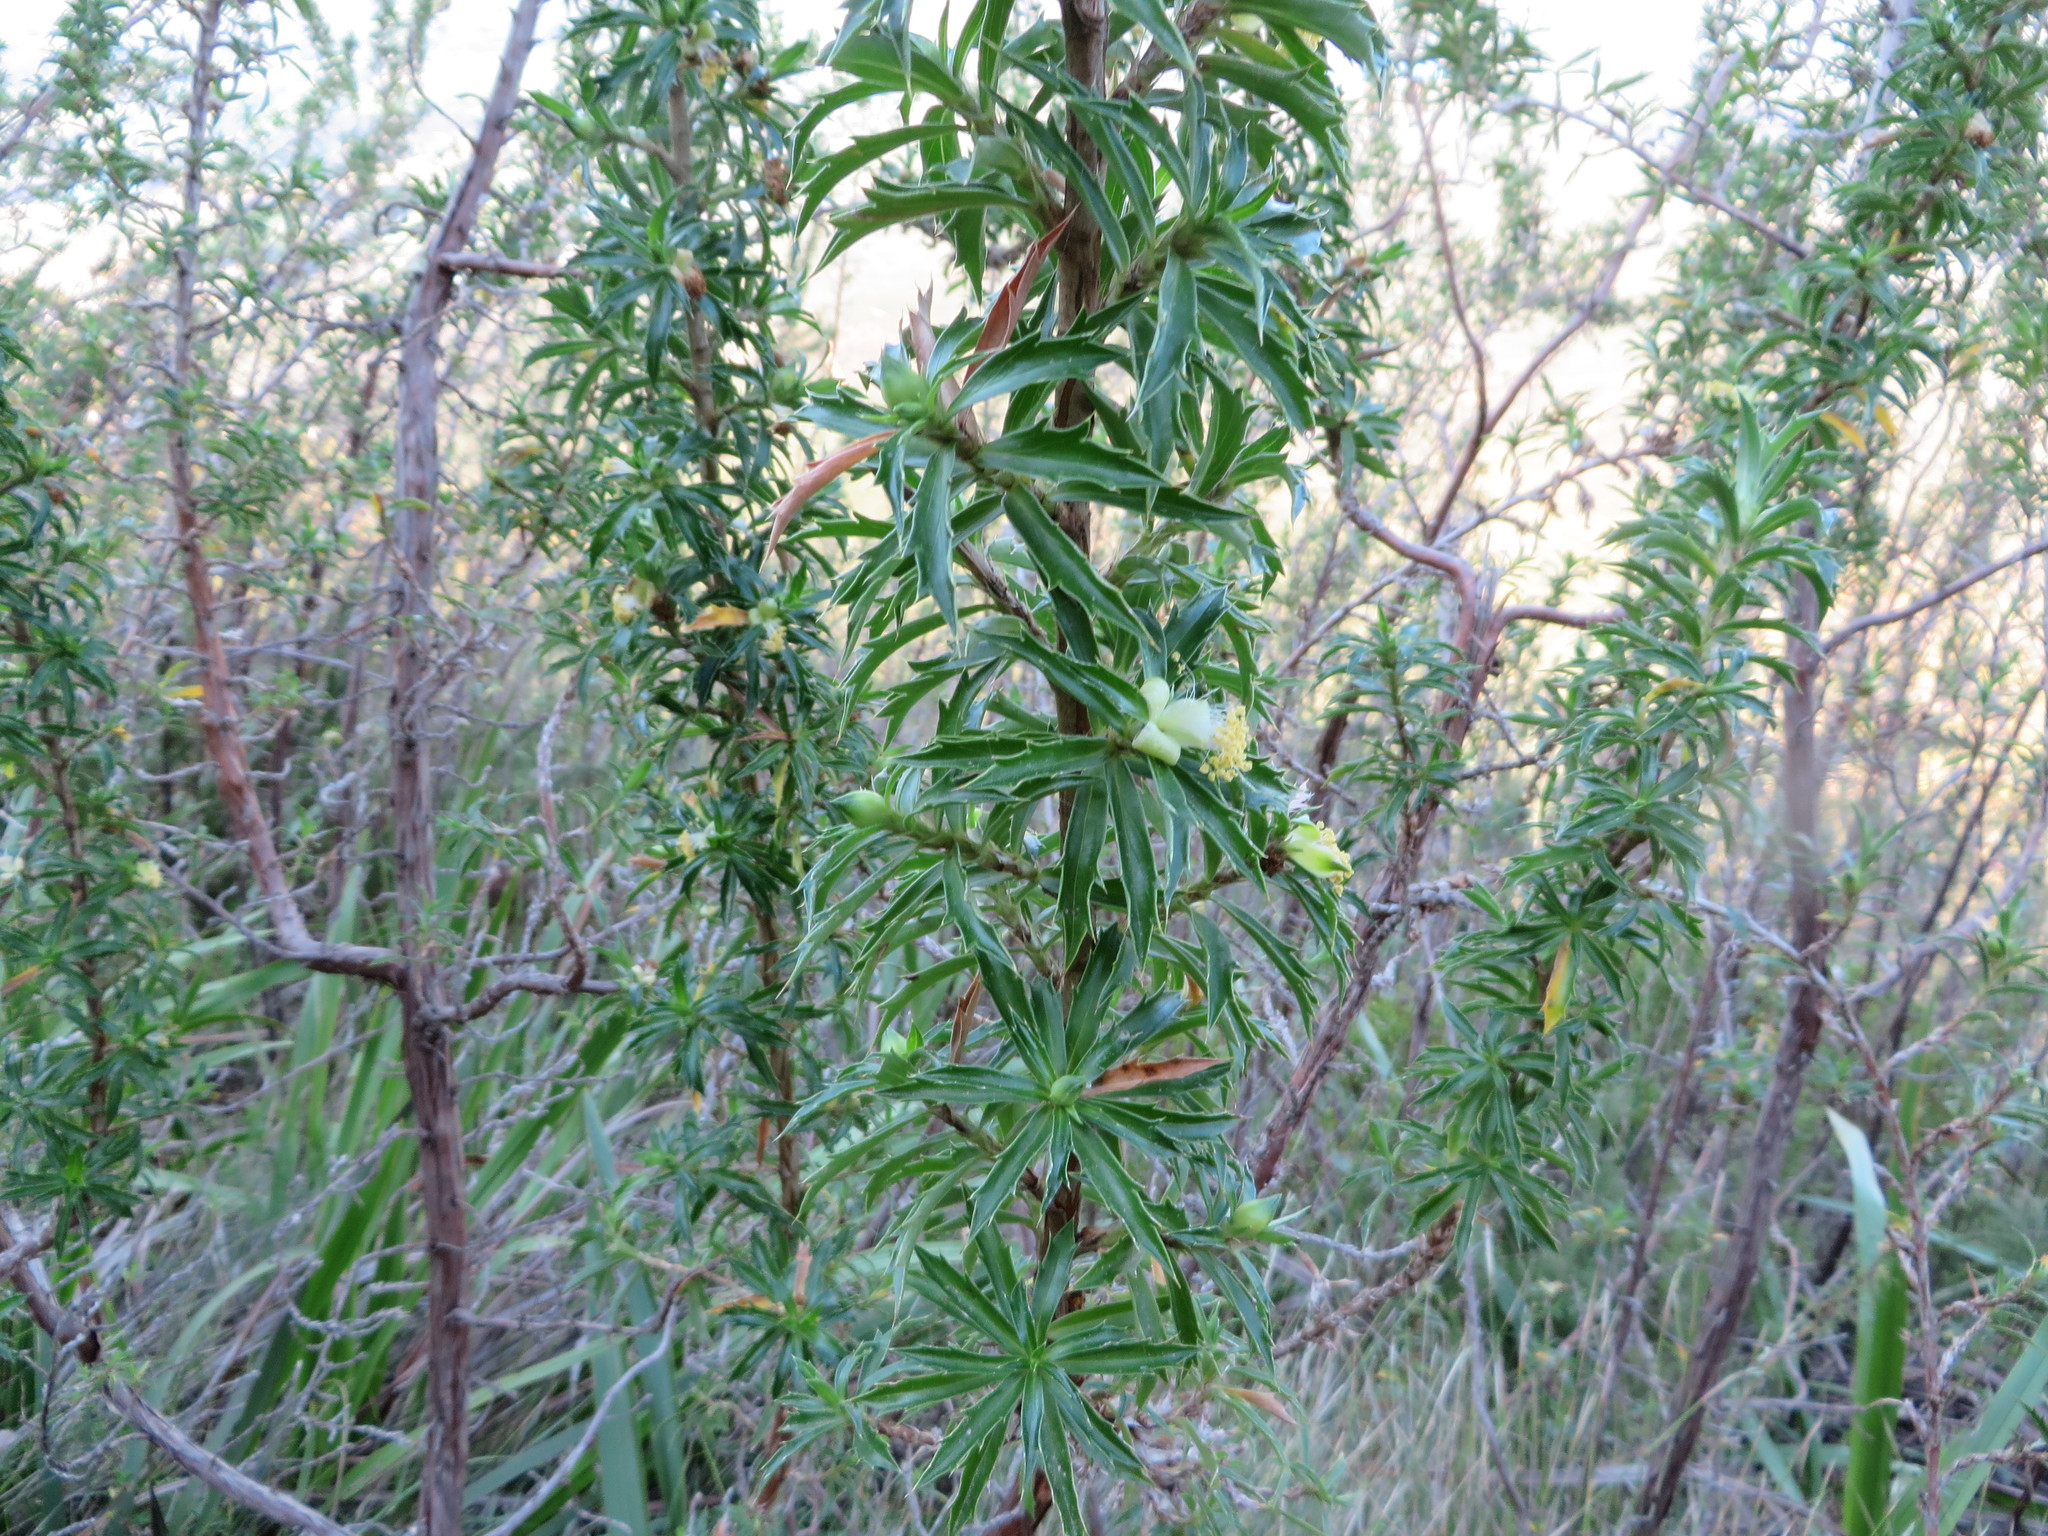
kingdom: Plantae
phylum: Tracheophyta
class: Magnoliopsida
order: Rosales
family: Rosaceae
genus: Cliffortia
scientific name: Cliffortia phillipsii
